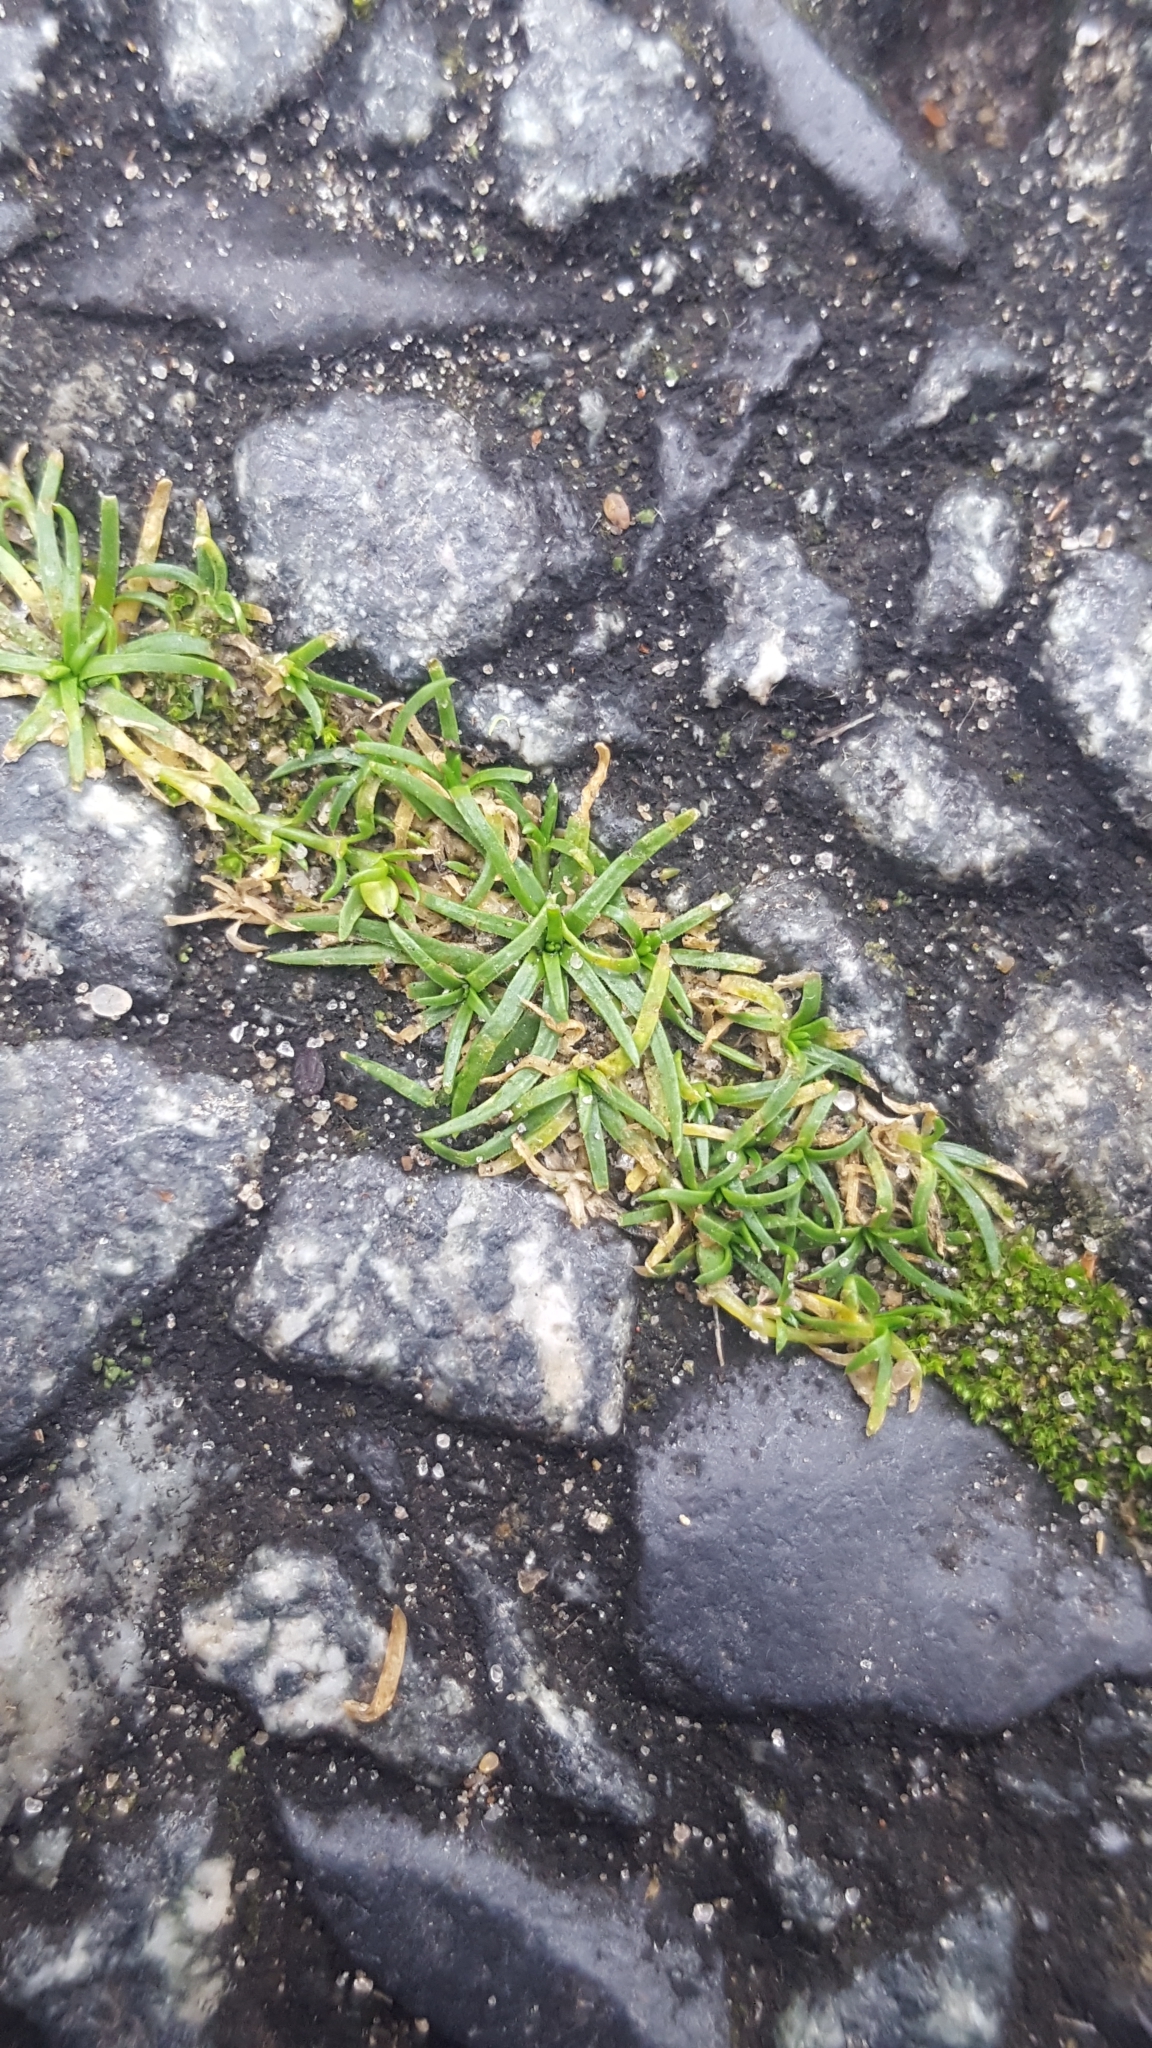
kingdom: Plantae
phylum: Tracheophyta
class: Magnoliopsida
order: Caryophyllales
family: Caryophyllaceae
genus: Sagina
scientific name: Sagina procumbens
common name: Procumbent pearlwort
